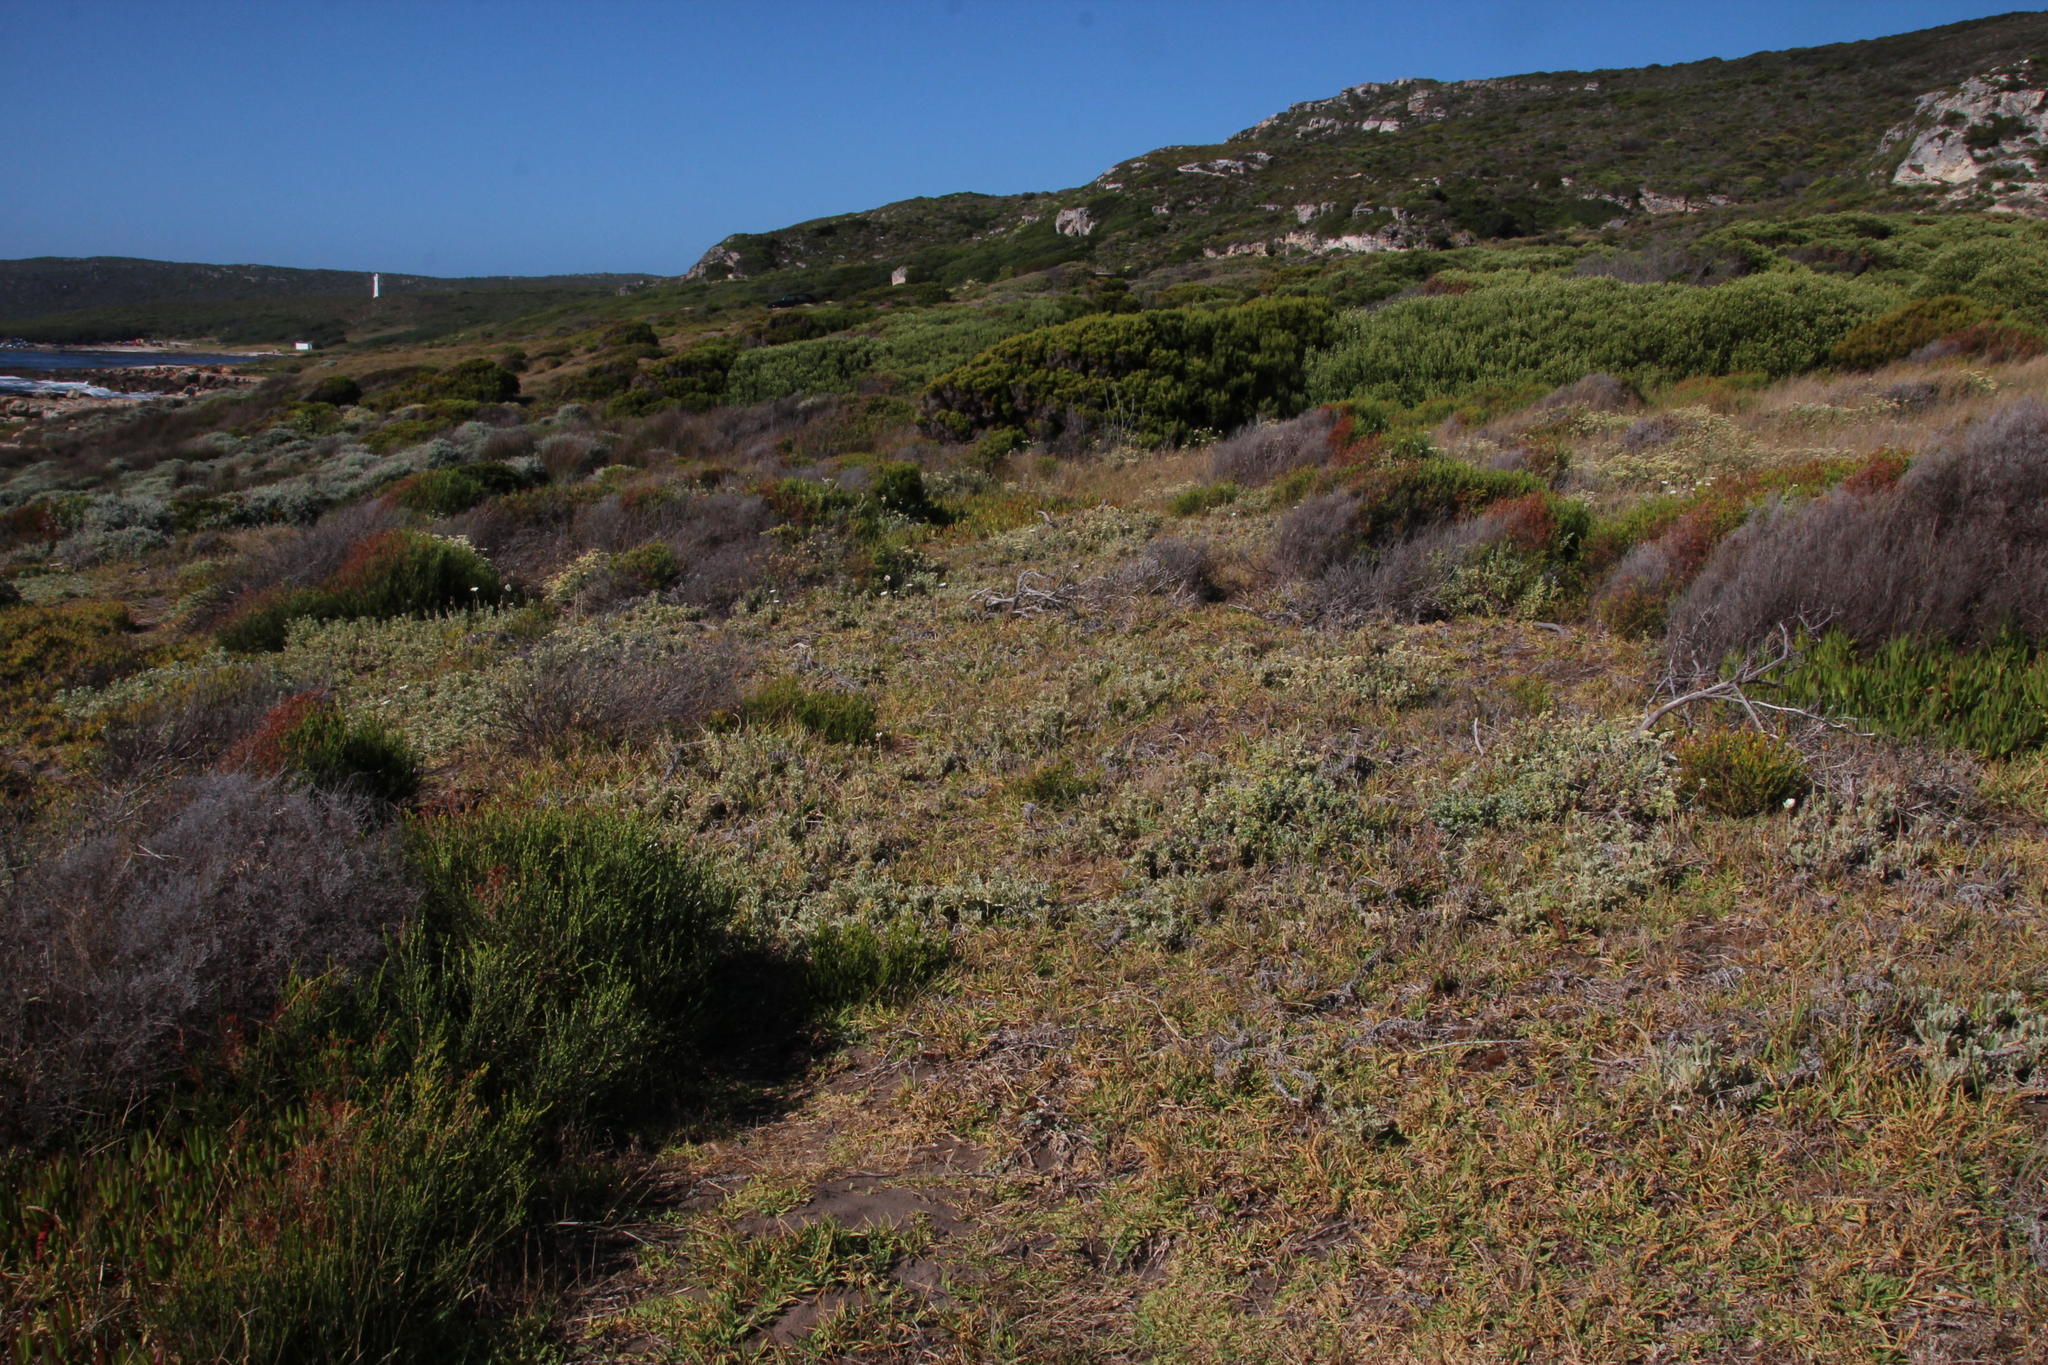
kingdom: Plantae
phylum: Tracheophyta
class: Magnoliopsida
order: Asterales
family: Asteraceae
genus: Arctotis
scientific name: Arctotis stoechadifolia
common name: African daisy
